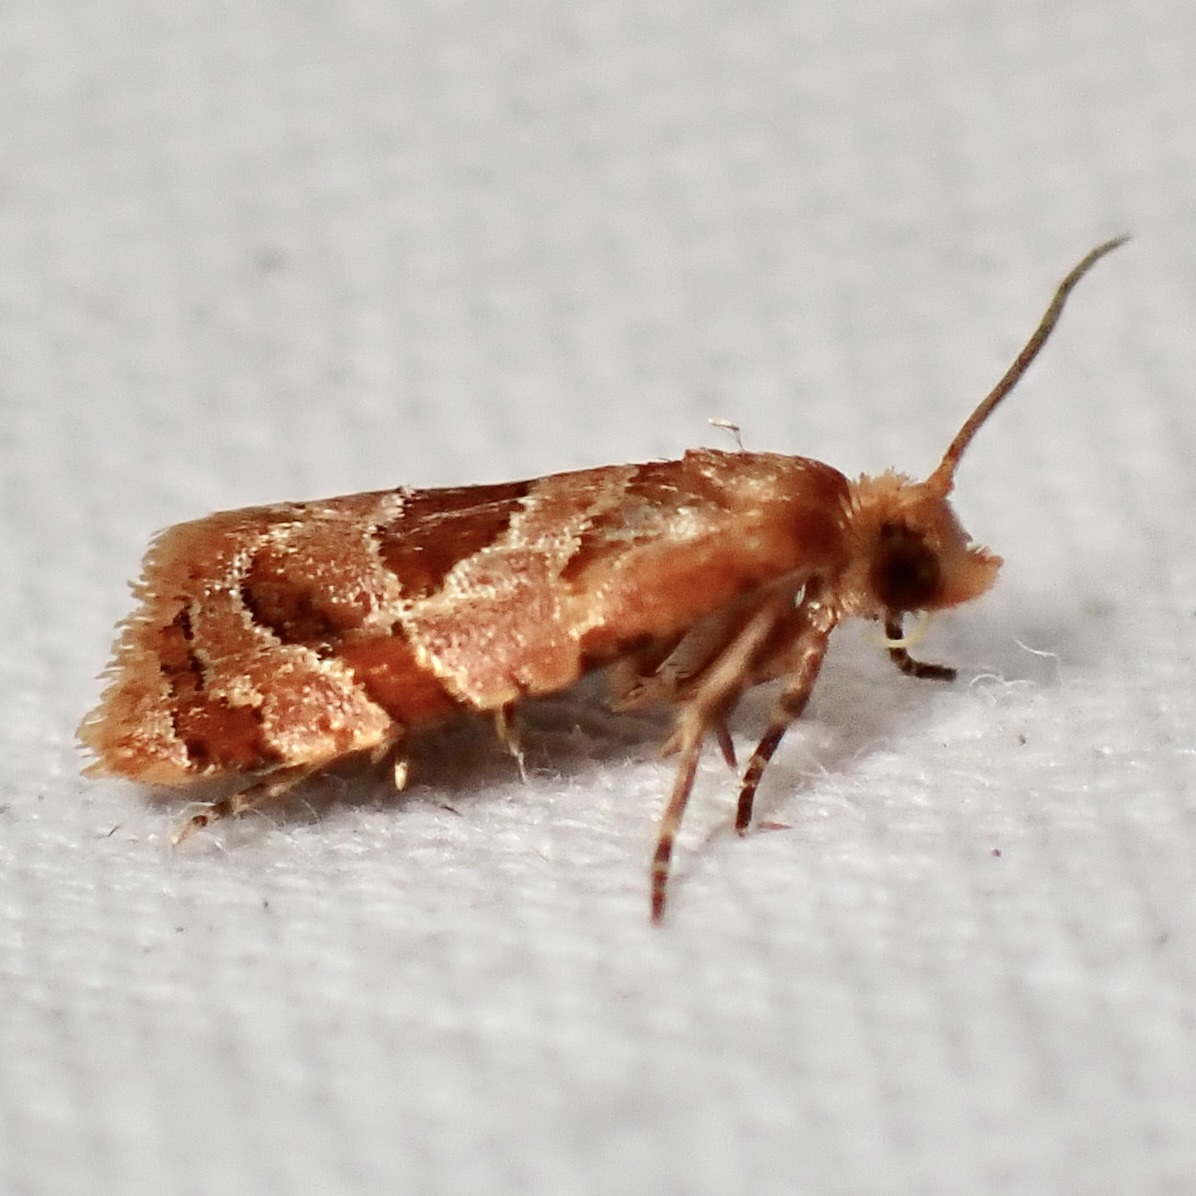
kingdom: Animalia
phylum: Arthropoda
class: Insecta
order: Lepidoptera
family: Tortricidae
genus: Hyptiharpa
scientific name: Hyptiharpa baboquavariana
